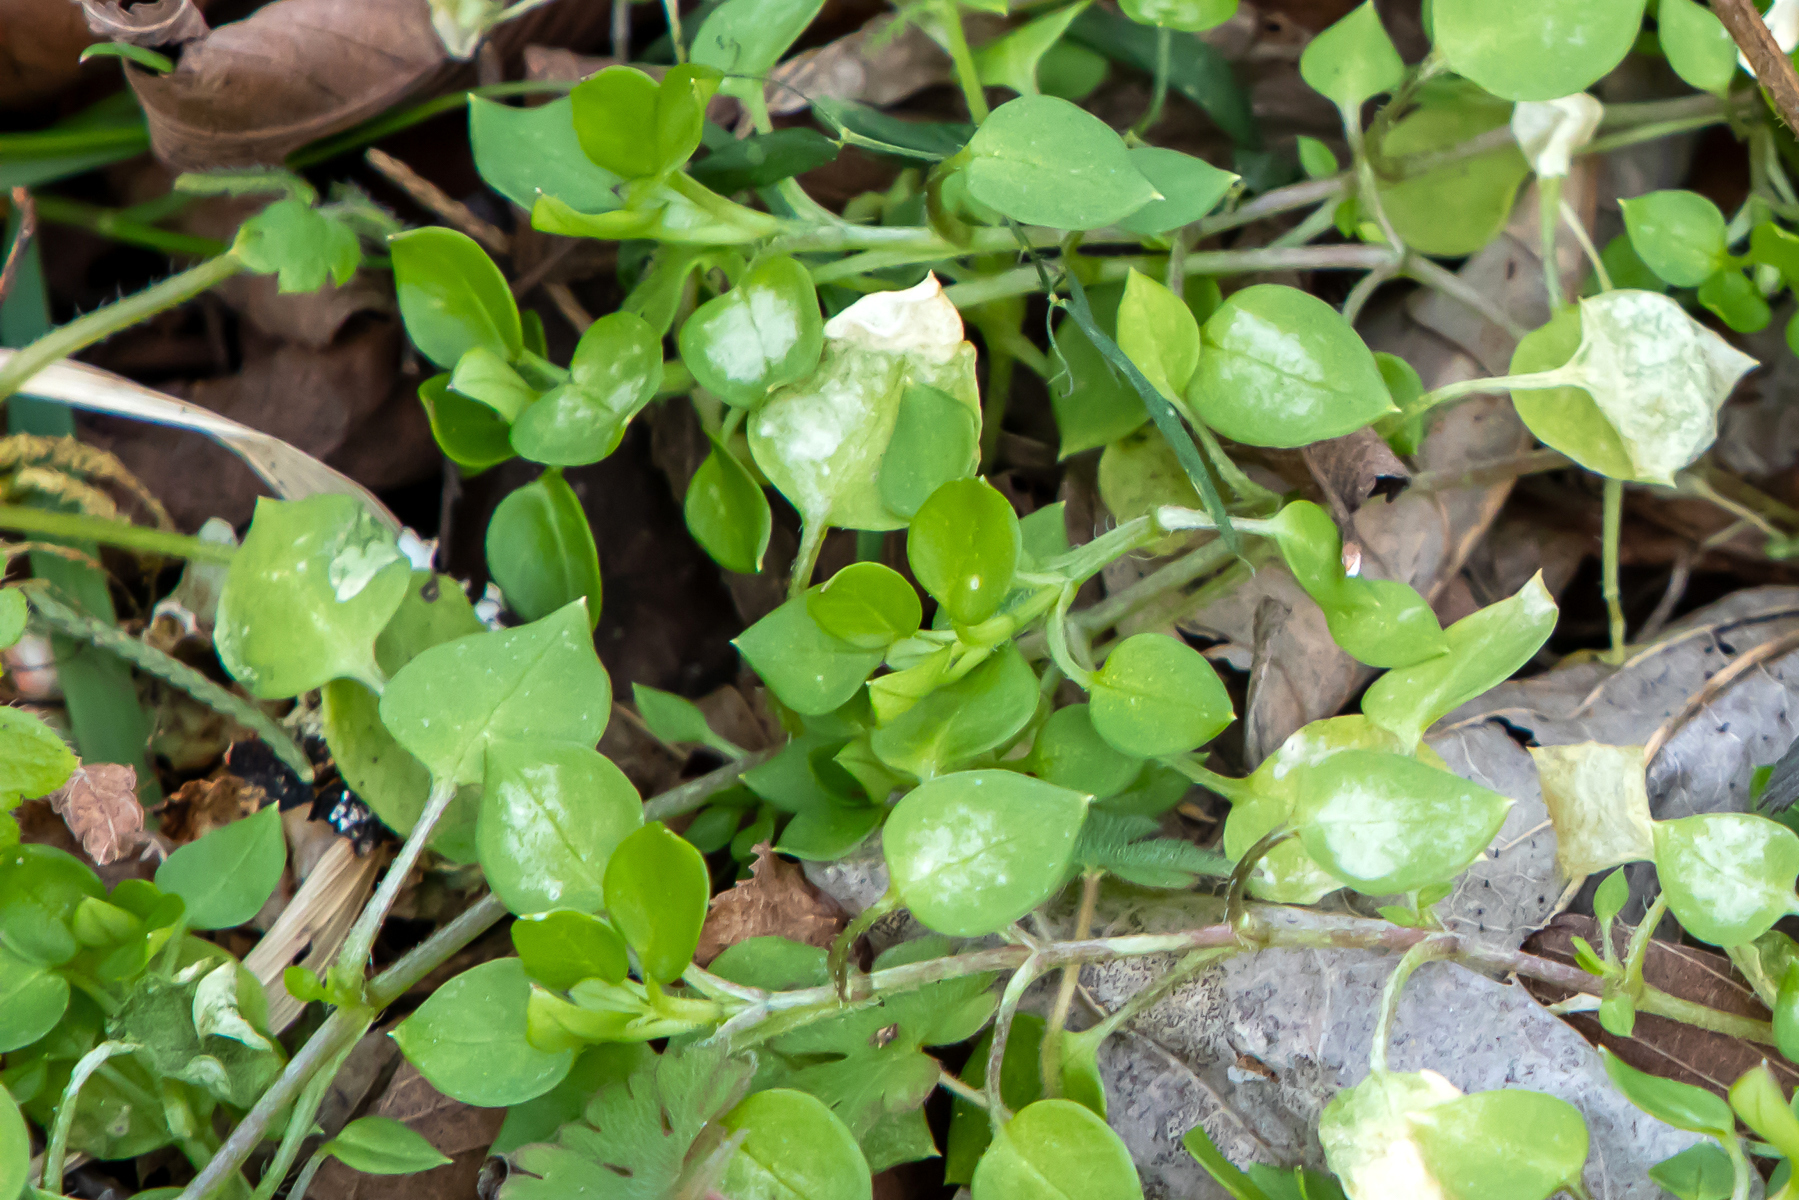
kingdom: Plantae
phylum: Tracheophyta
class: Magnoliopsida
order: Caryophyllales
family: Caryophyllaceae
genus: Stellaria
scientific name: Stellaria media
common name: Common chickweed
